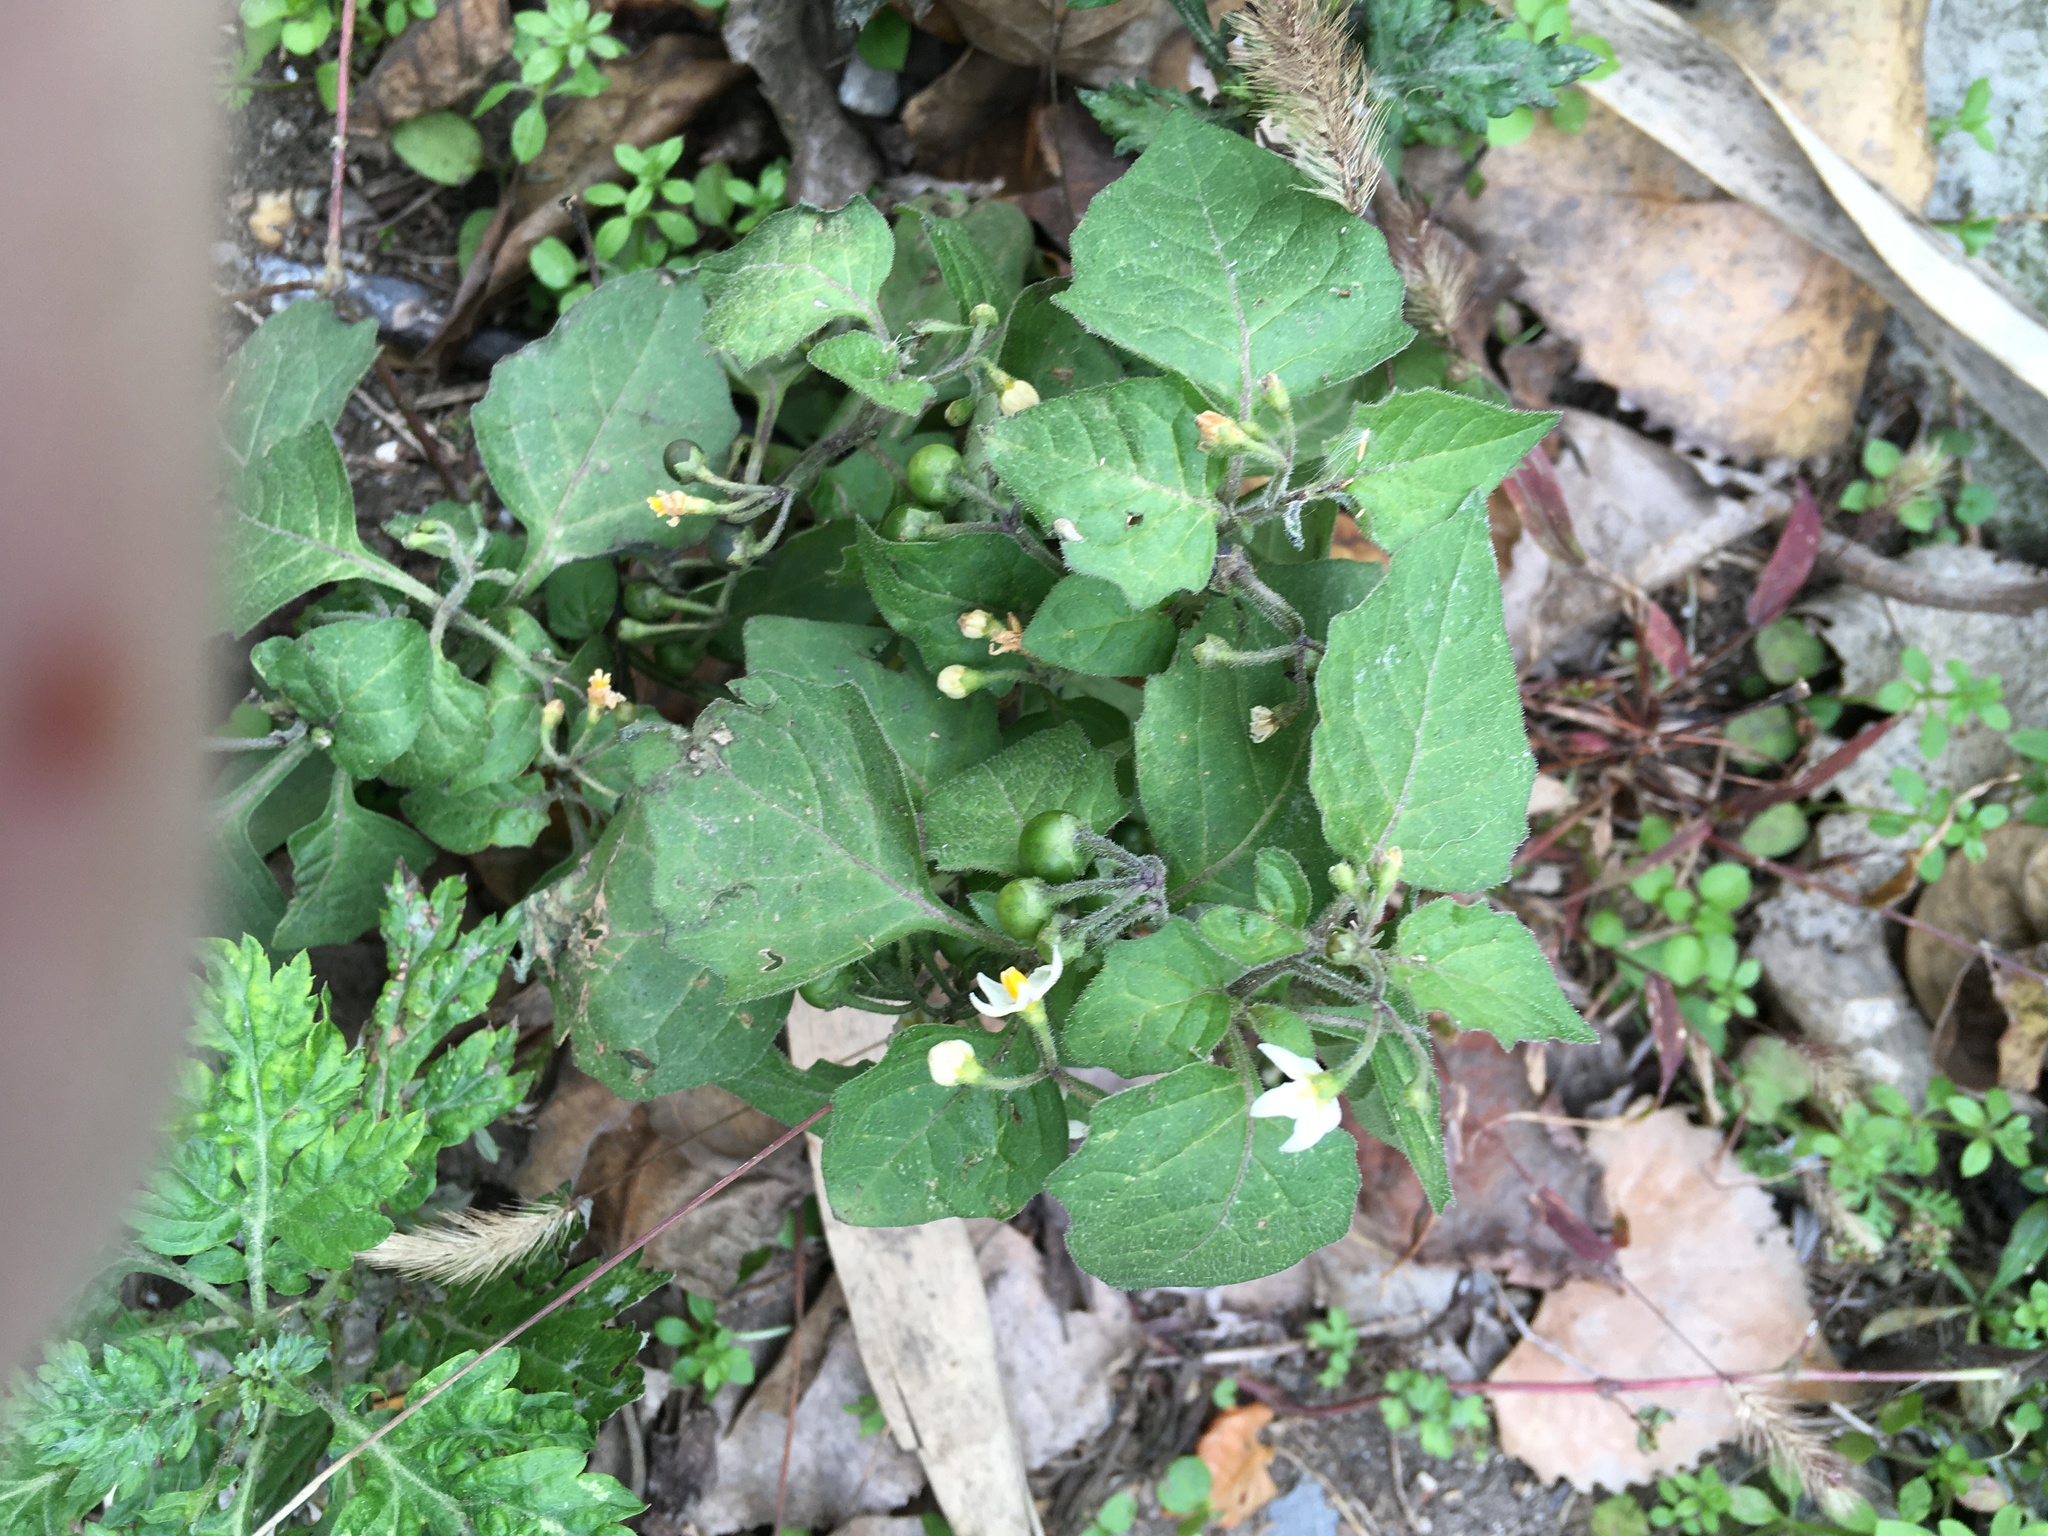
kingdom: Plantae
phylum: Tracheophyta
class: Magnoliopsida
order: Solanales
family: Solanaceae
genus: Solanum
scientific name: Solanum nigrum
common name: Black nightshade
